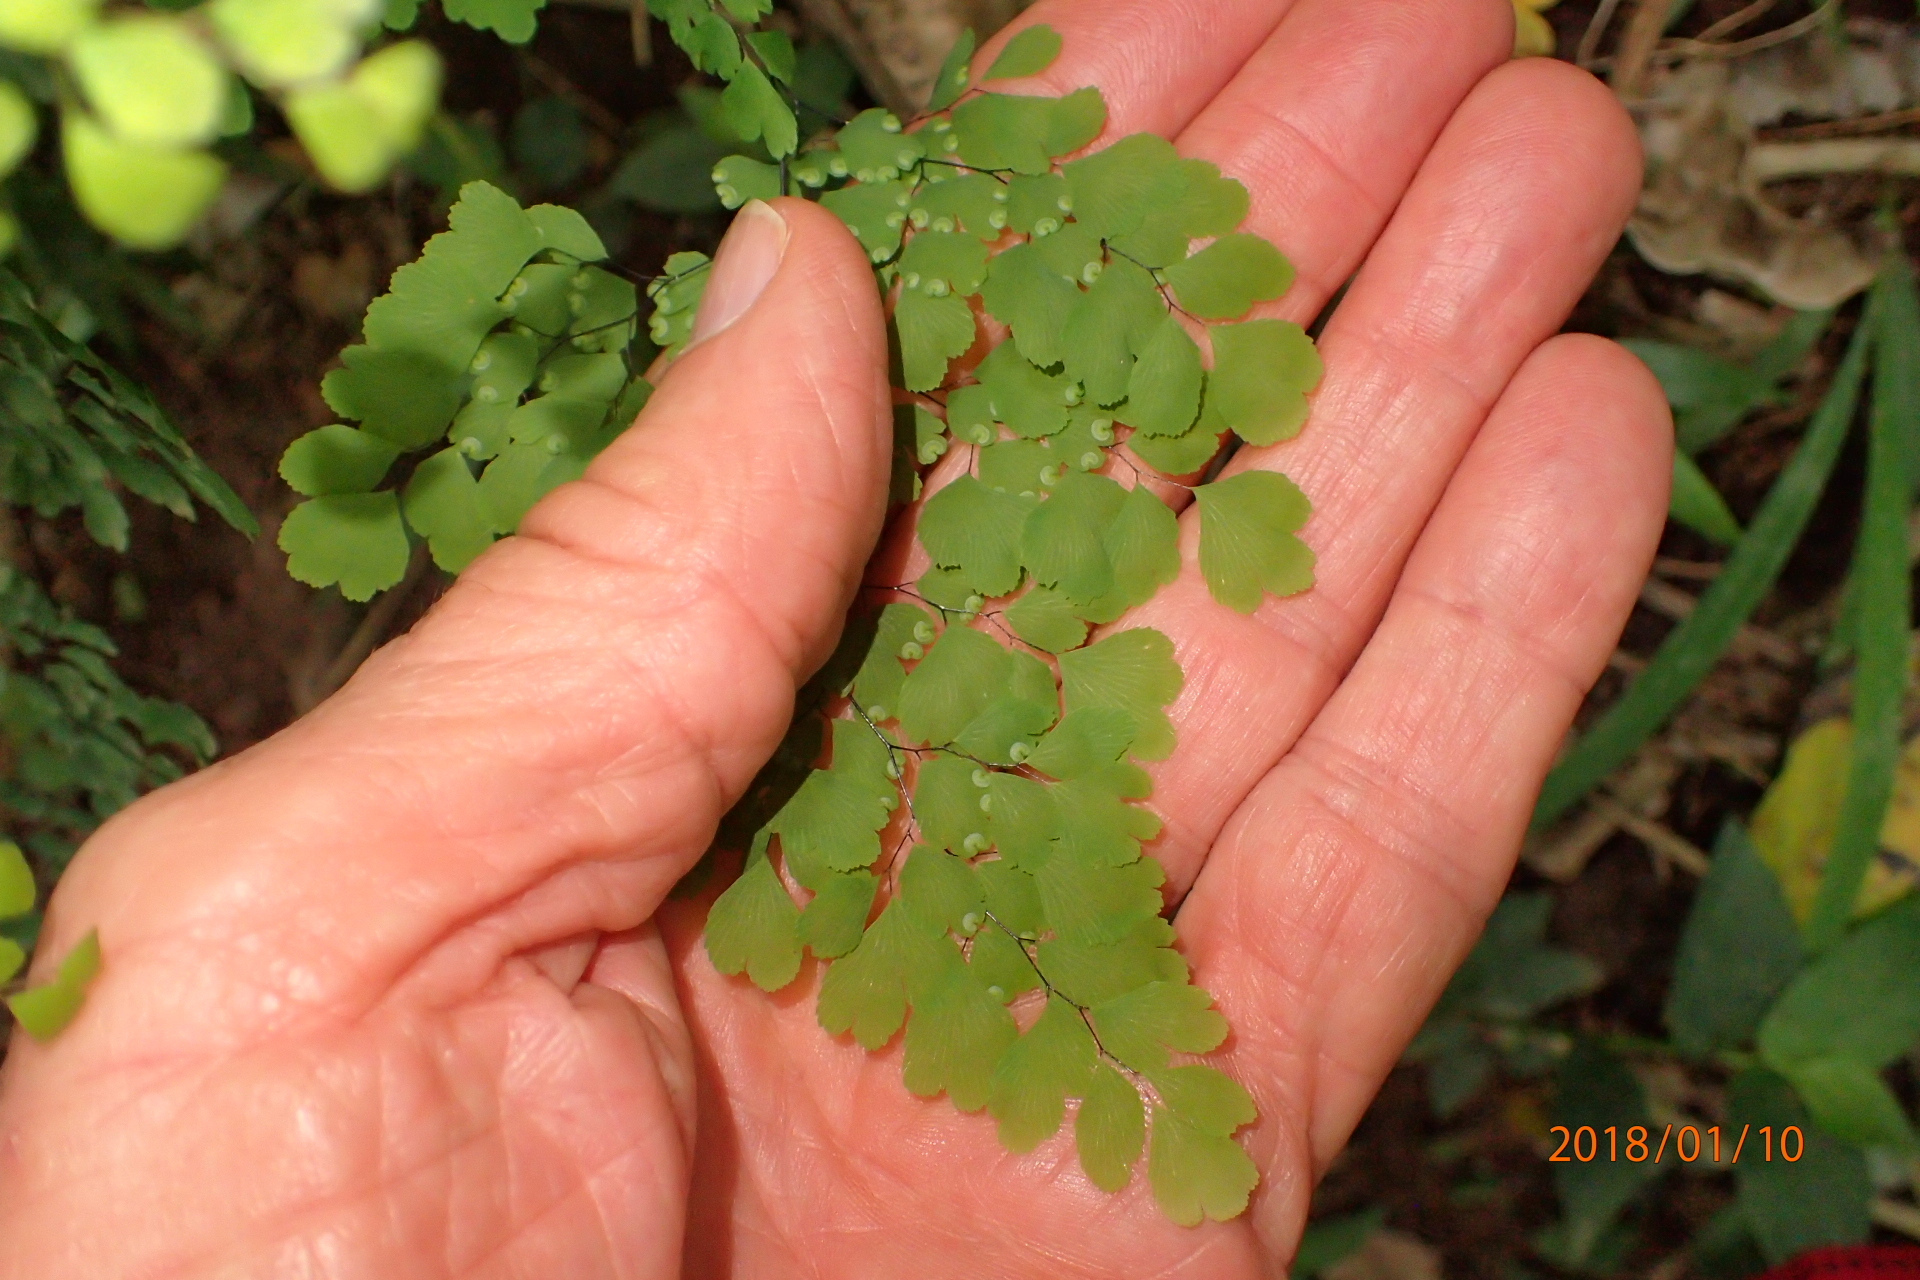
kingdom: Plantae
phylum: Tracheophyta
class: Polypodiopsida
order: Polypodiales
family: Pteridaceae
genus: Adiantum
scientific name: Adiantum capillus-veneris
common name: Maidenhair fern
